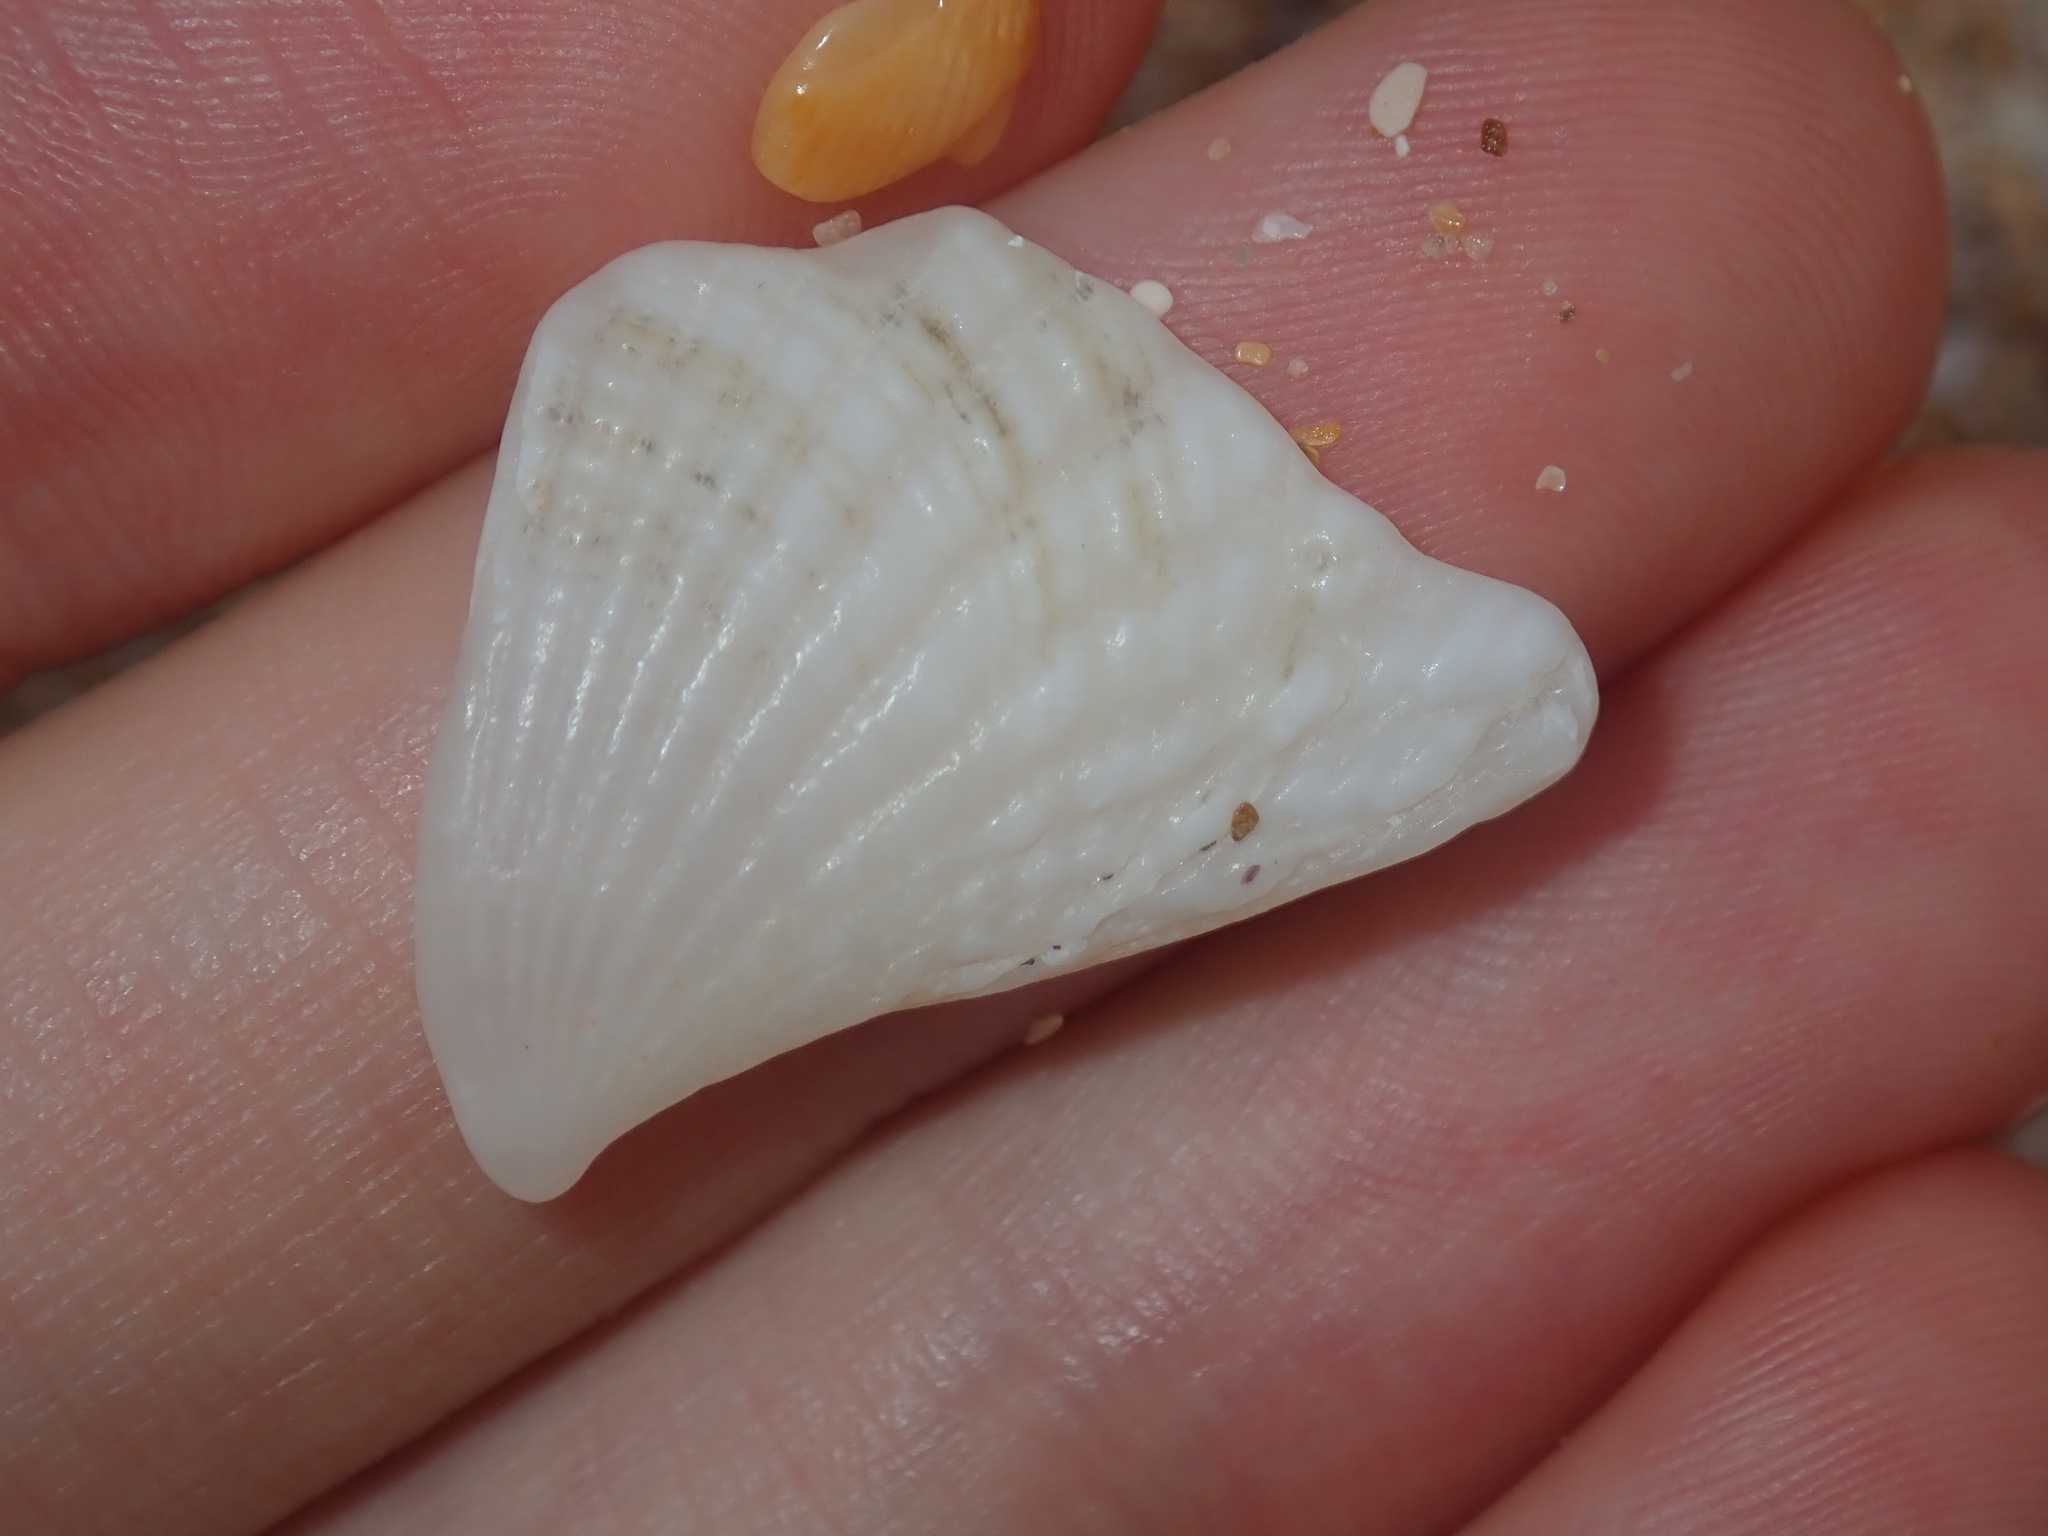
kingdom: Animalia
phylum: Mollusca
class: Bivalvia
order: Lucinida
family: Lucinidae
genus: Codakia
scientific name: Codakia rugifera
